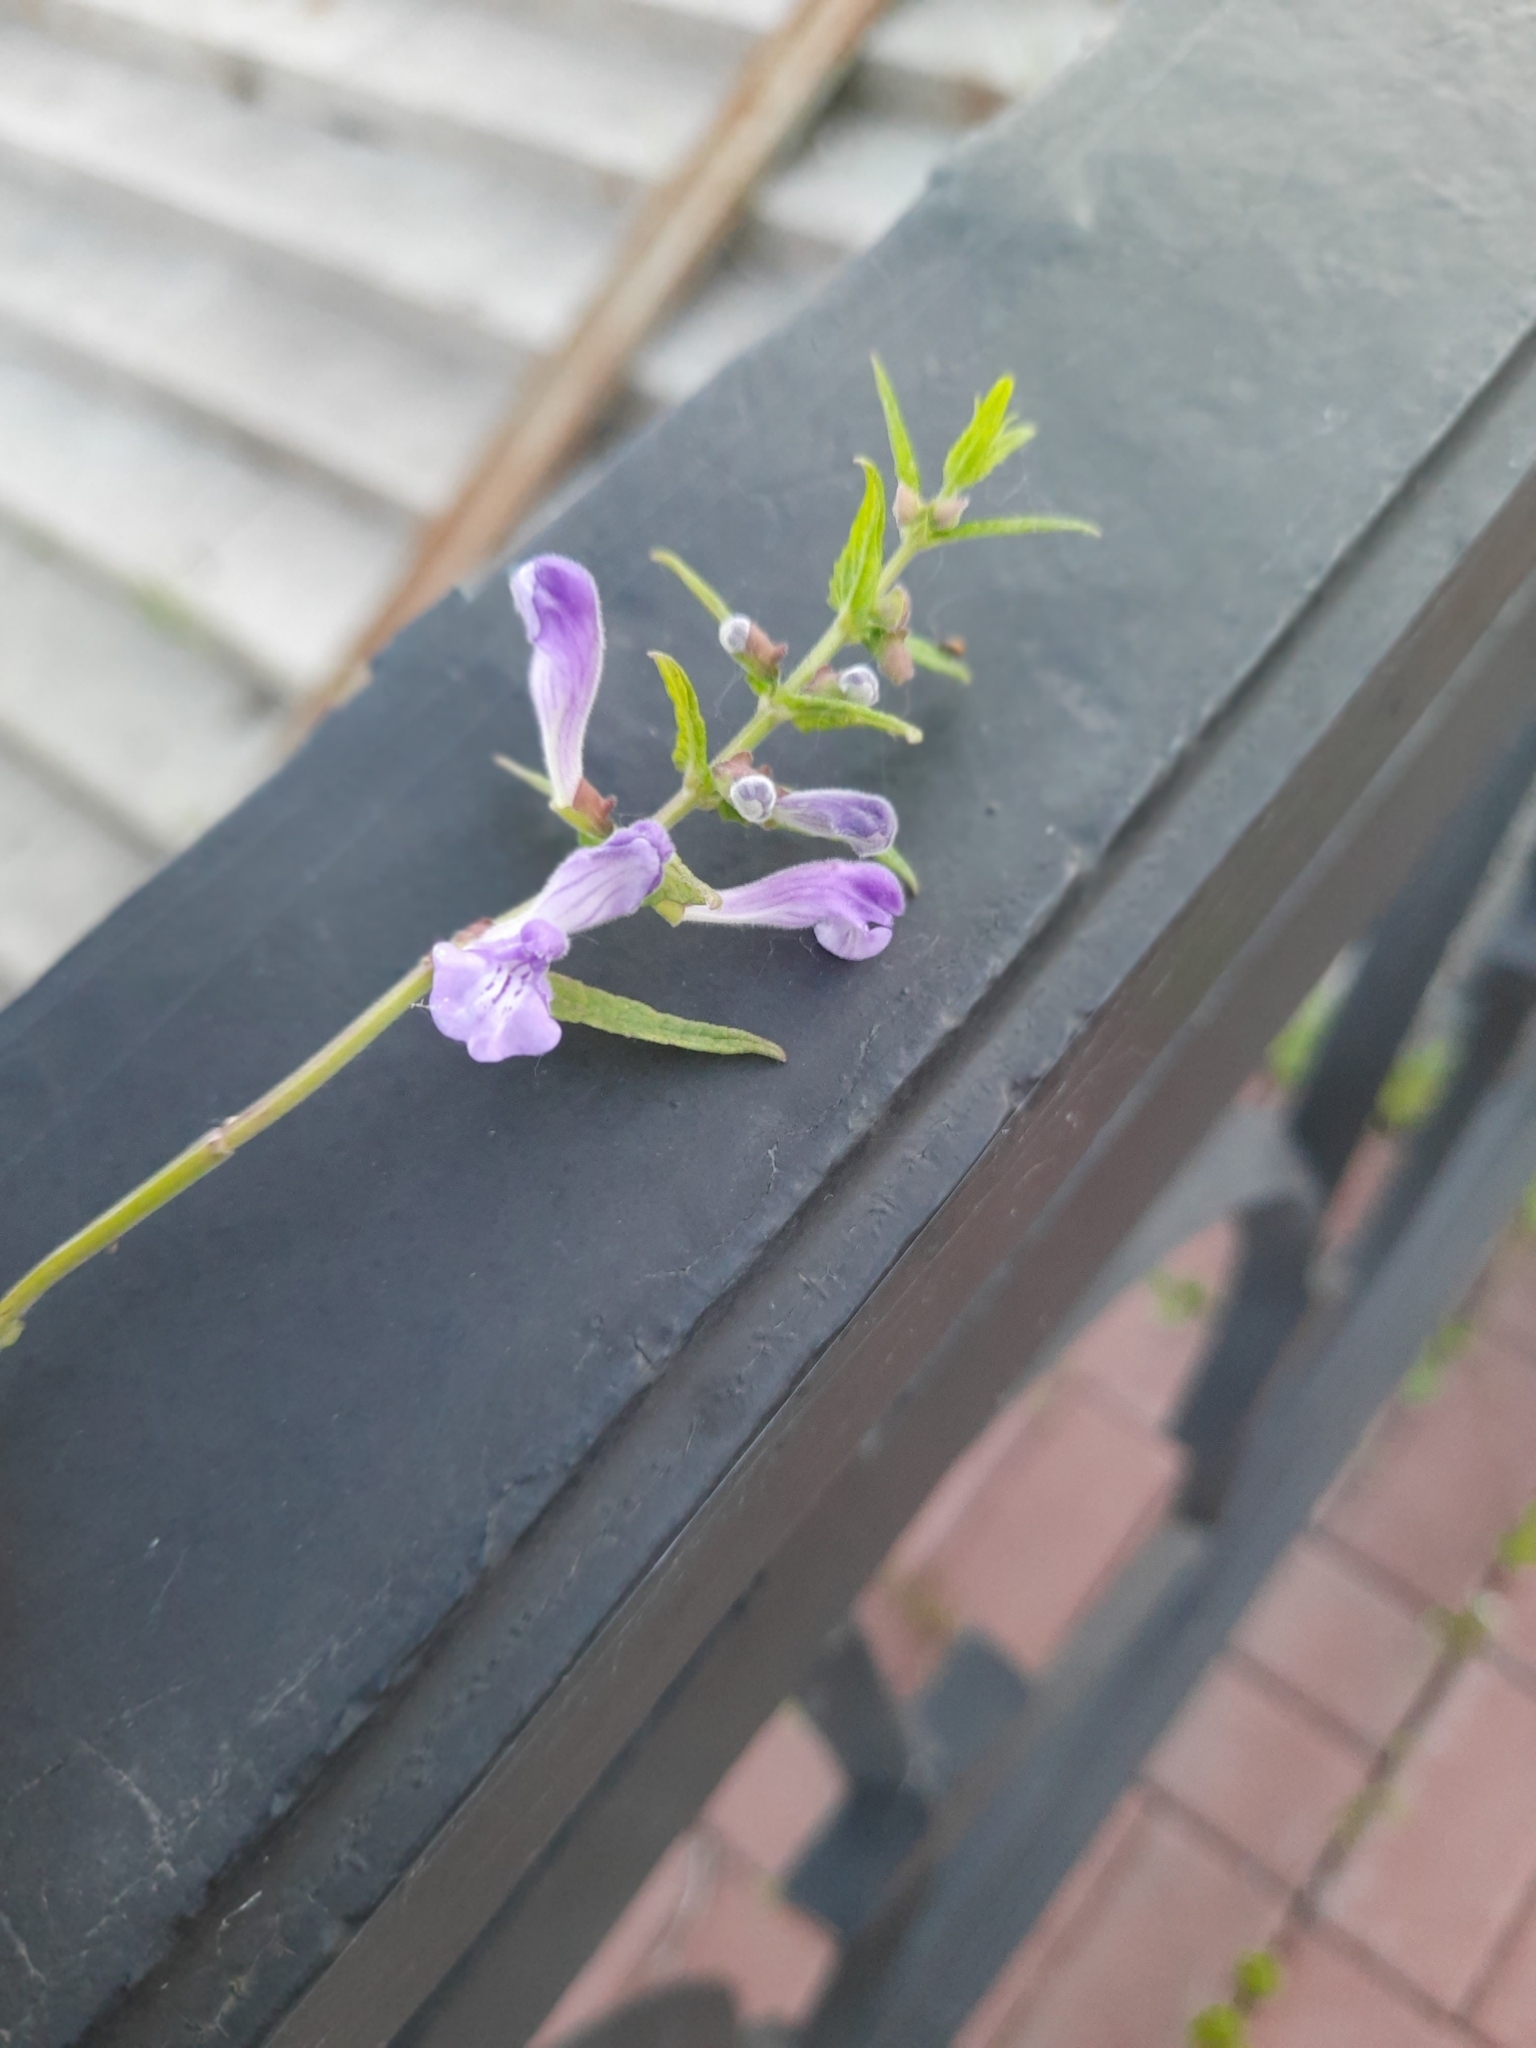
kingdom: Plantae
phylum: Tracheophyta
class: Magnoliopsida
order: Lamiales
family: Lamiaceae
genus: Scutellaria
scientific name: Scutellaria galericulata
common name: Skullcap
